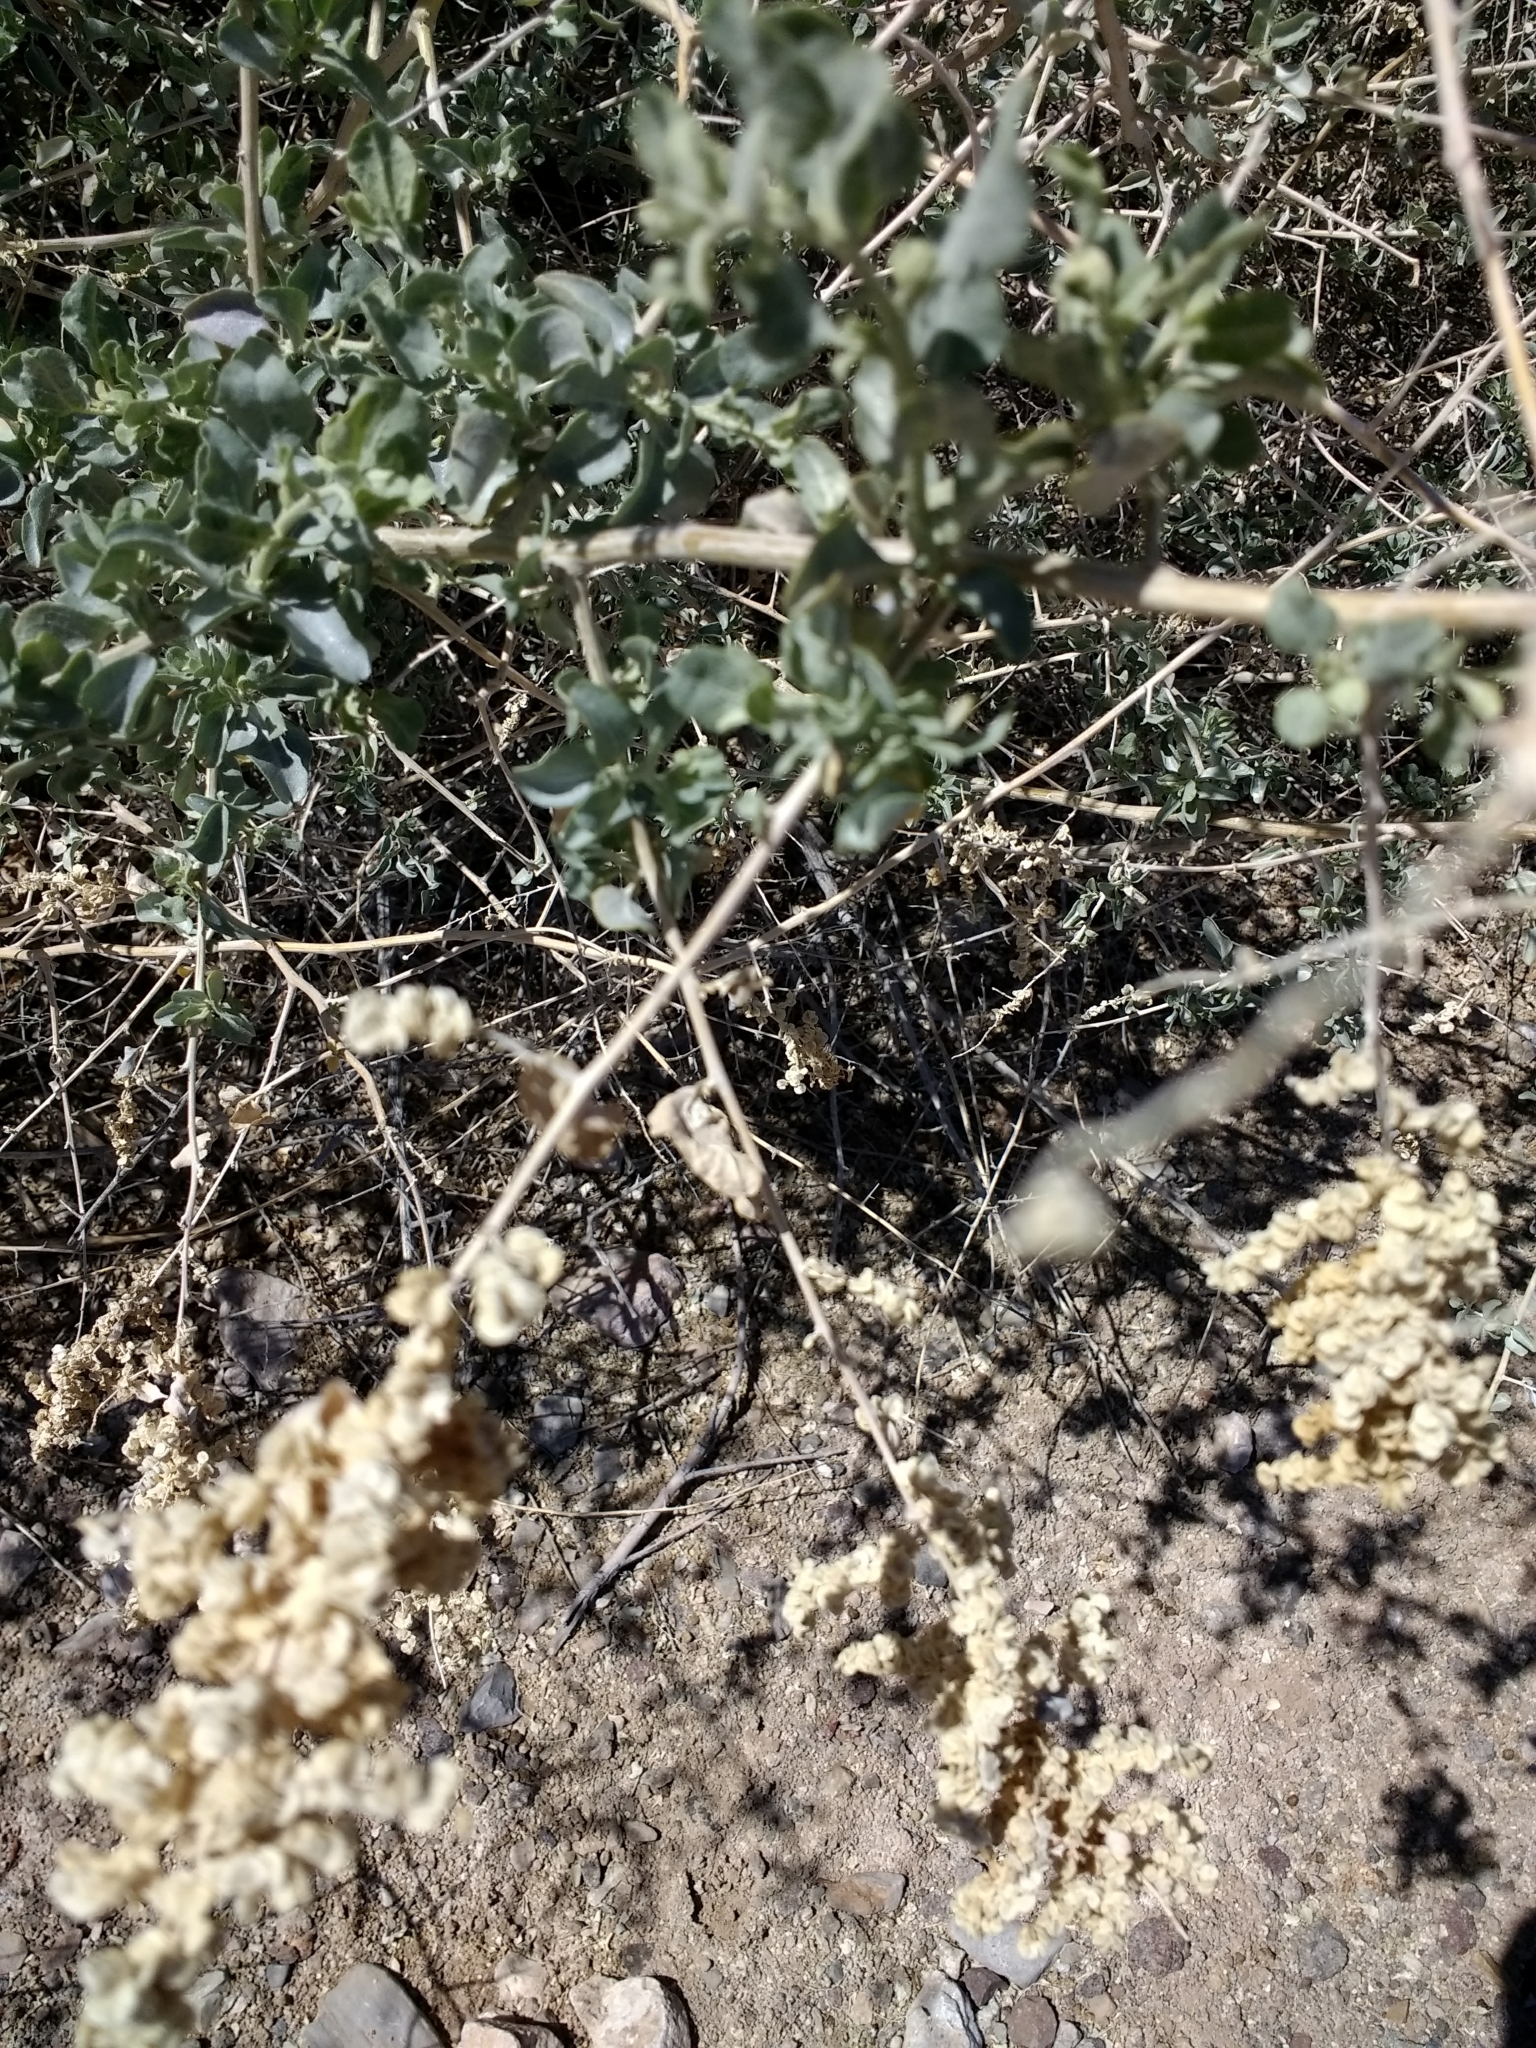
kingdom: Plantae
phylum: Tracheophyta
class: Magnoliopsida
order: Caryophyllales
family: Amaranthaceae
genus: Atriplex
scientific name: Atriplex lentiformis
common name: Big saltbush
